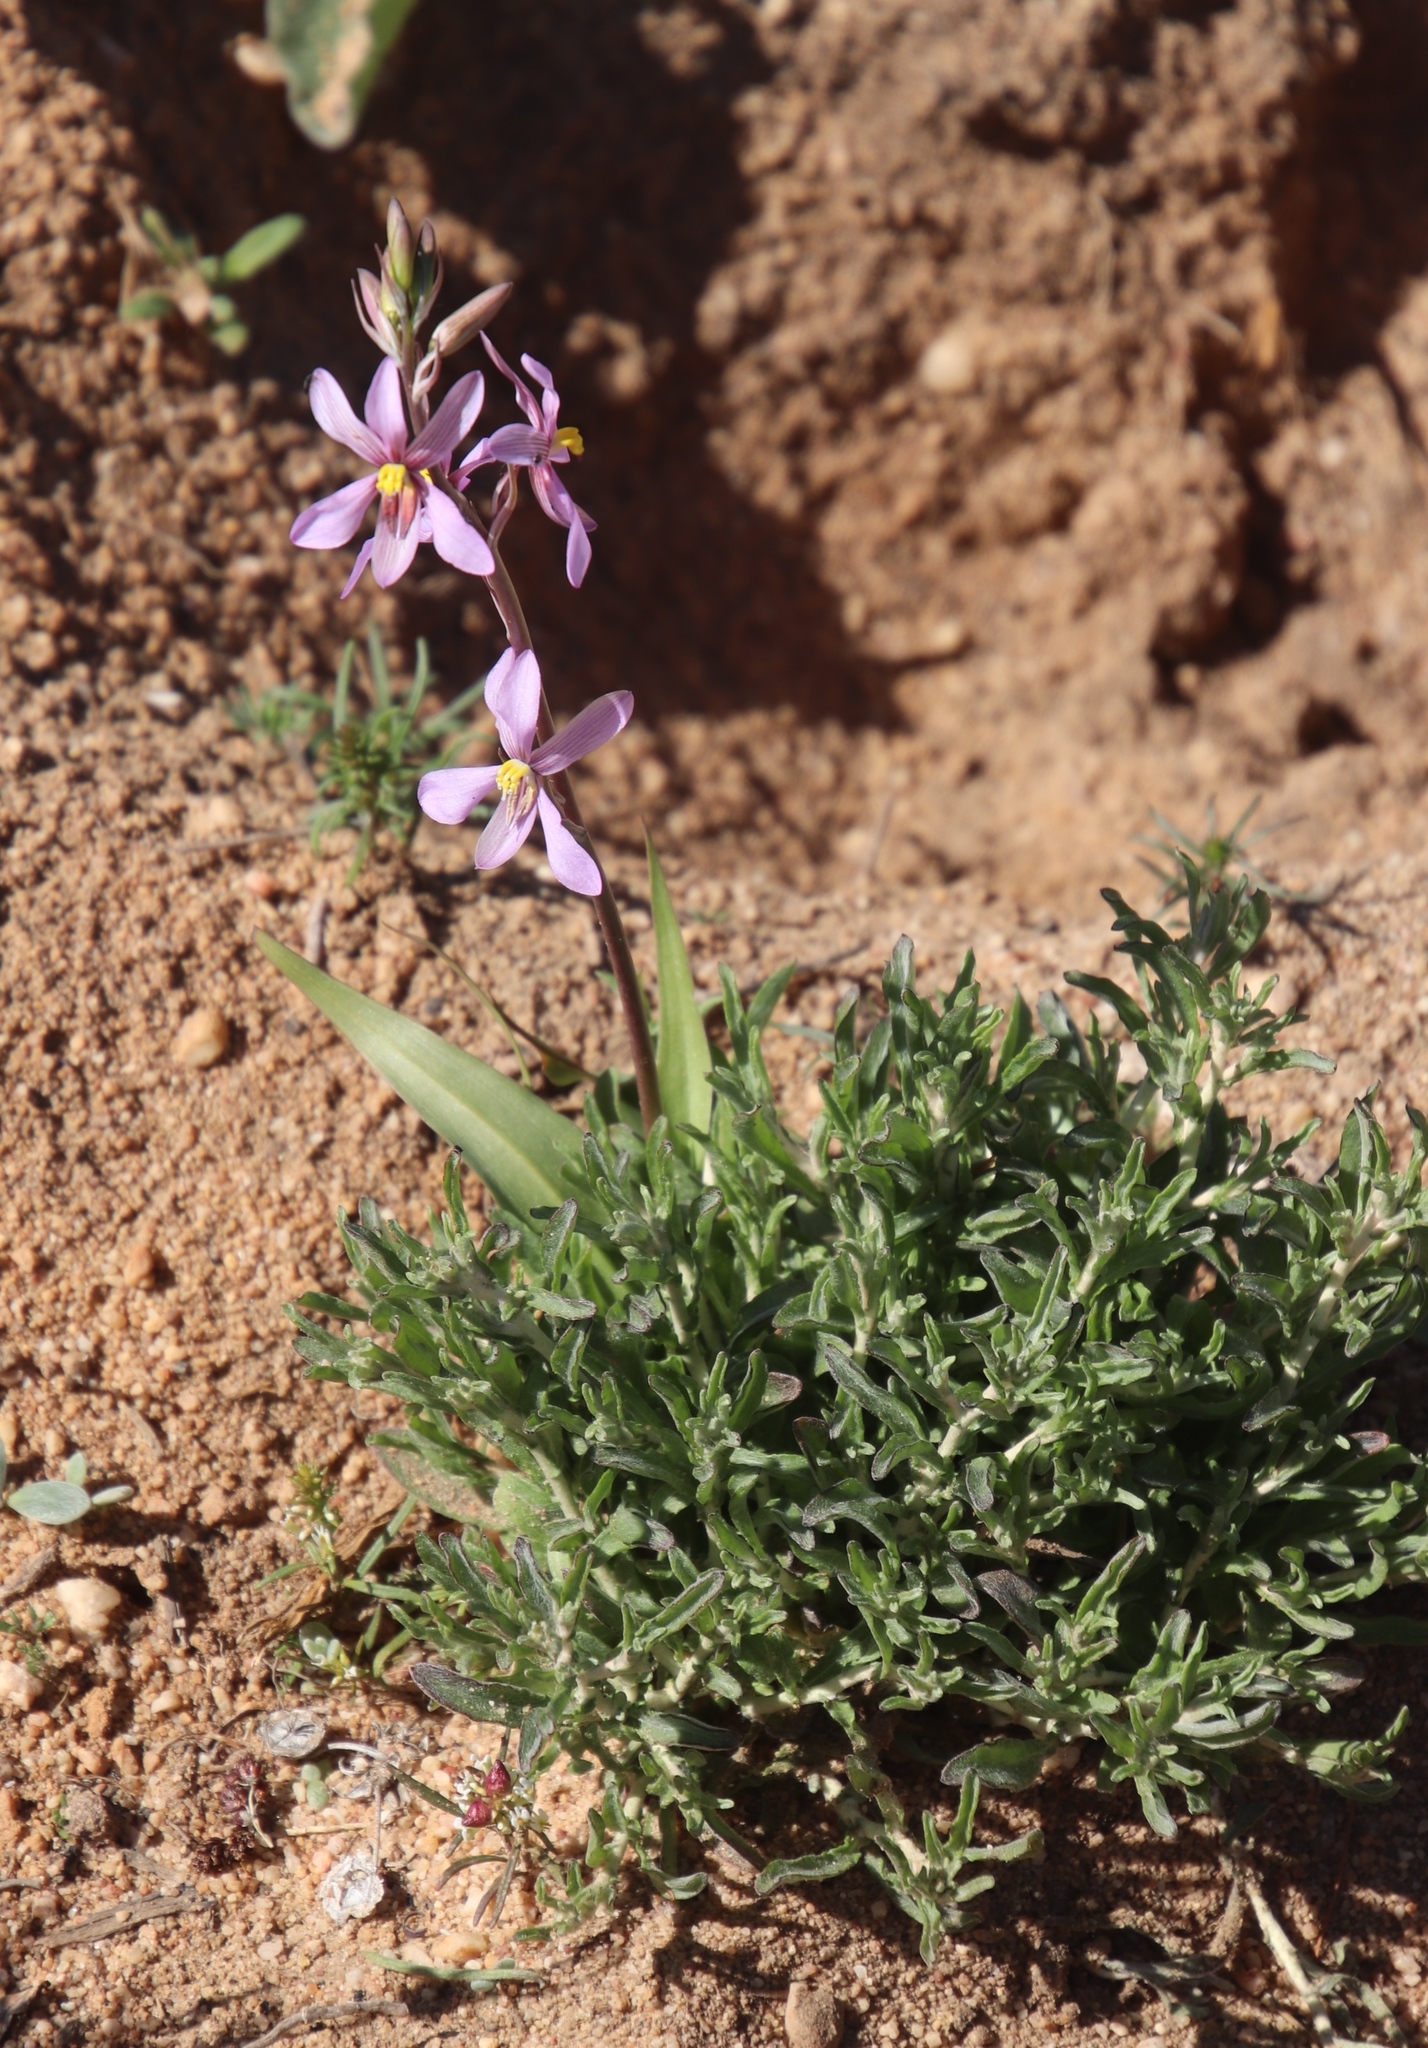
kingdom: Plantae
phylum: Tracheophyta
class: Liliopsida
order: Asparagales
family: Tecophilaeaceae
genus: Cyanella
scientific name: Cyanella hyacinthoides
